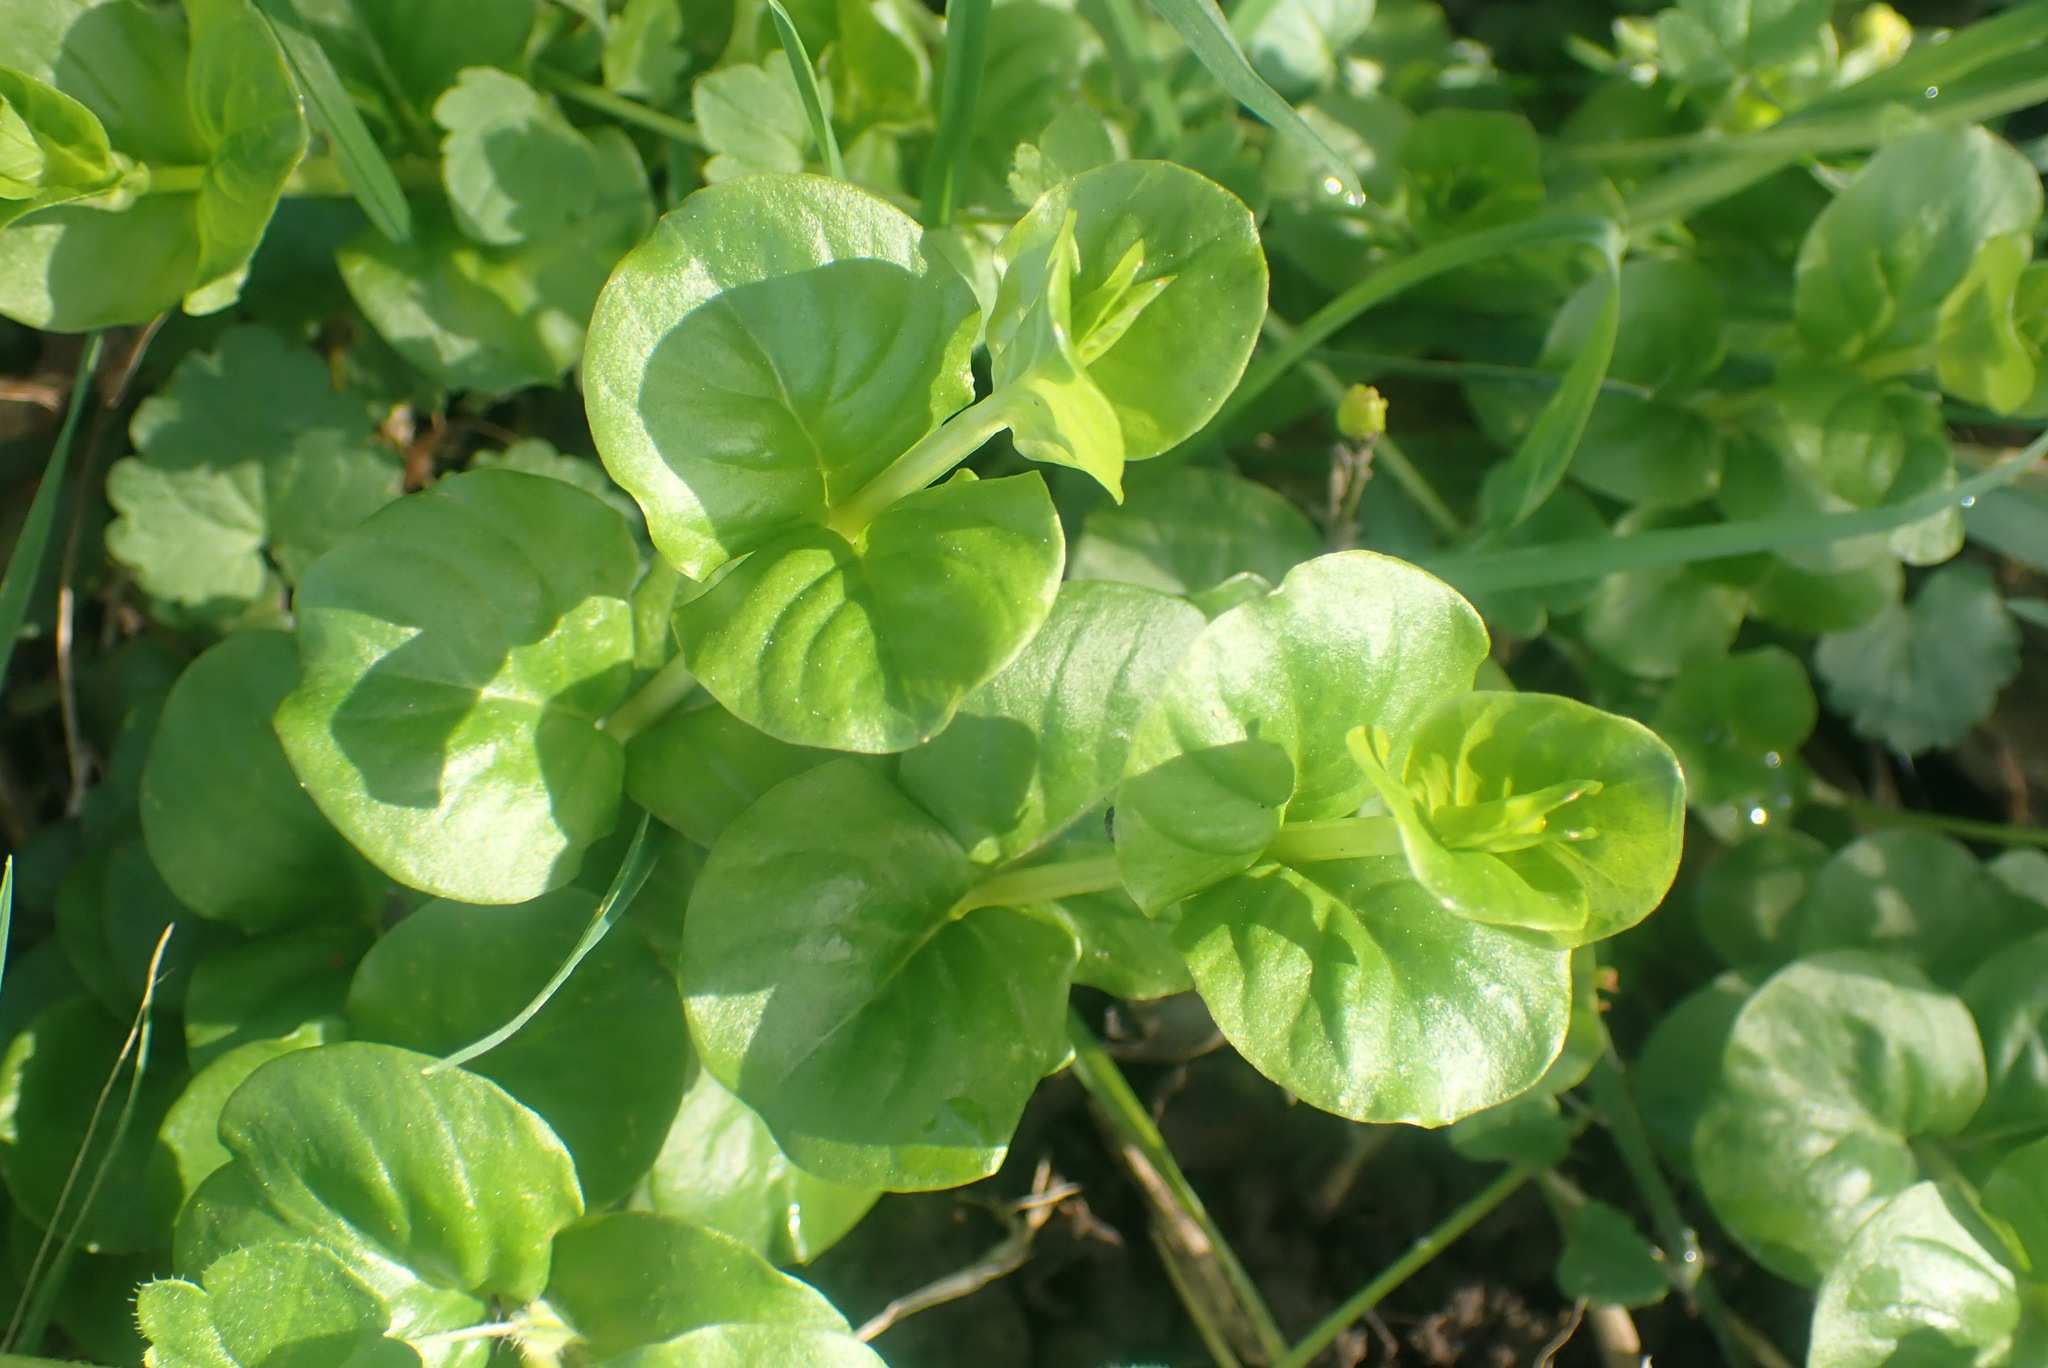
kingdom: Plantae
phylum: Tracheophyta
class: Magnoliopsida
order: Ericales
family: Primulaceae
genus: Lysimachia
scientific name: Lysimachia nummularia
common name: Moneywort
